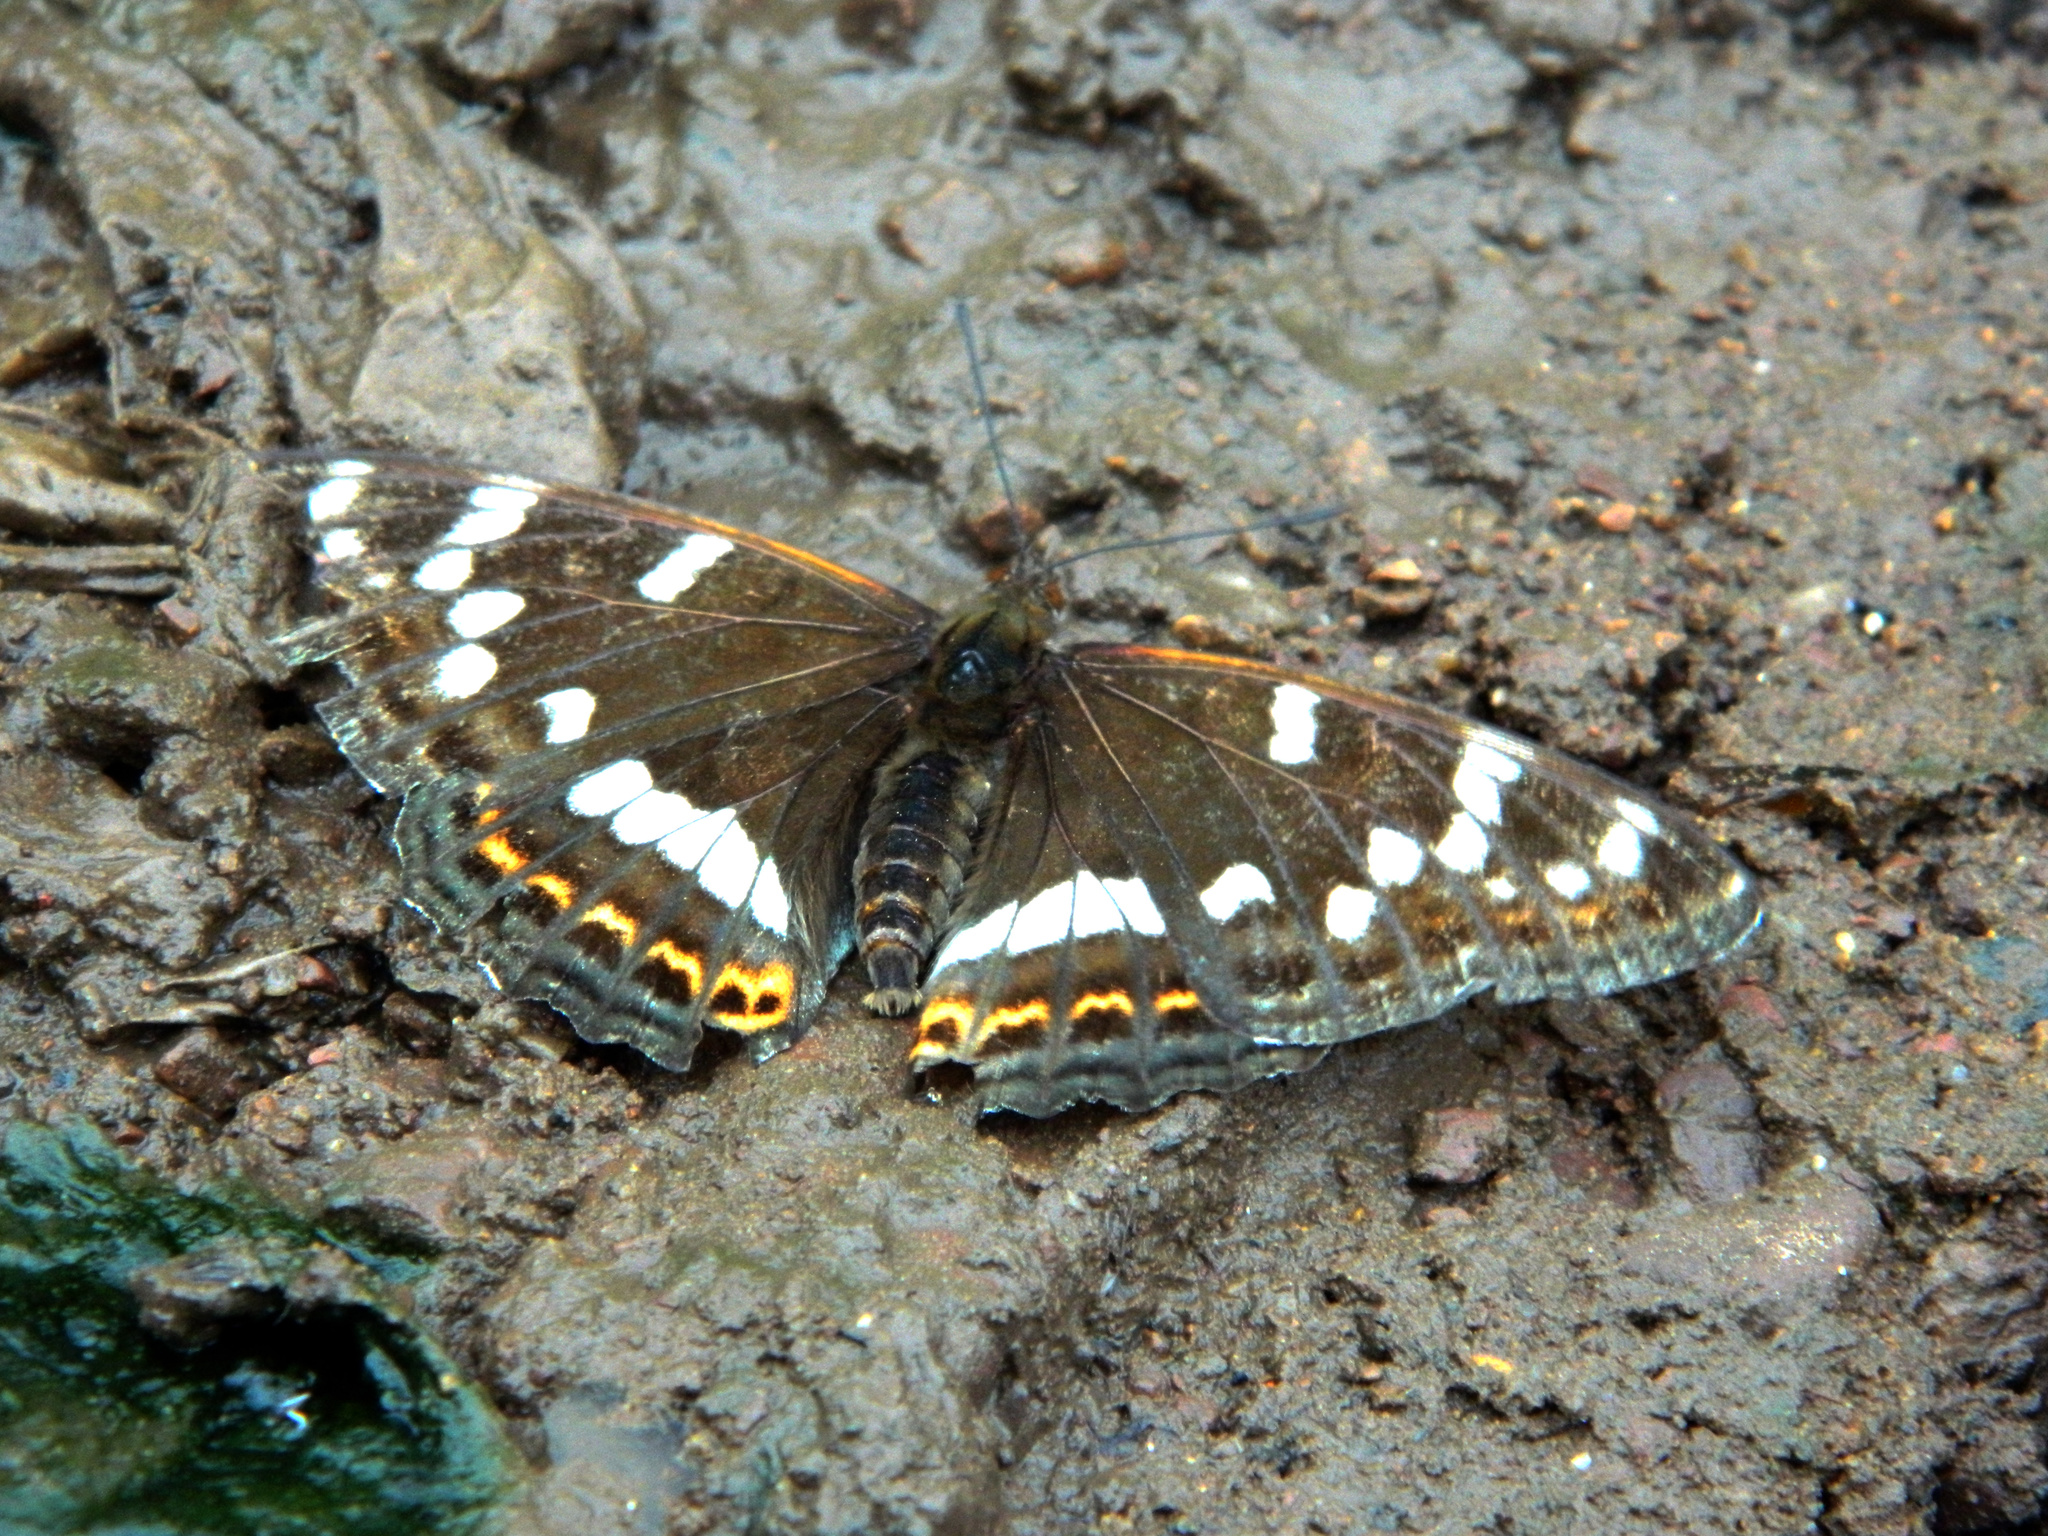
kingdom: Animalia
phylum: Arthropoda
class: Insecta
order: Lepidoptera
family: Nymphalidae
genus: Limenitis
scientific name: Limenitis populi
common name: Poplar admiral
